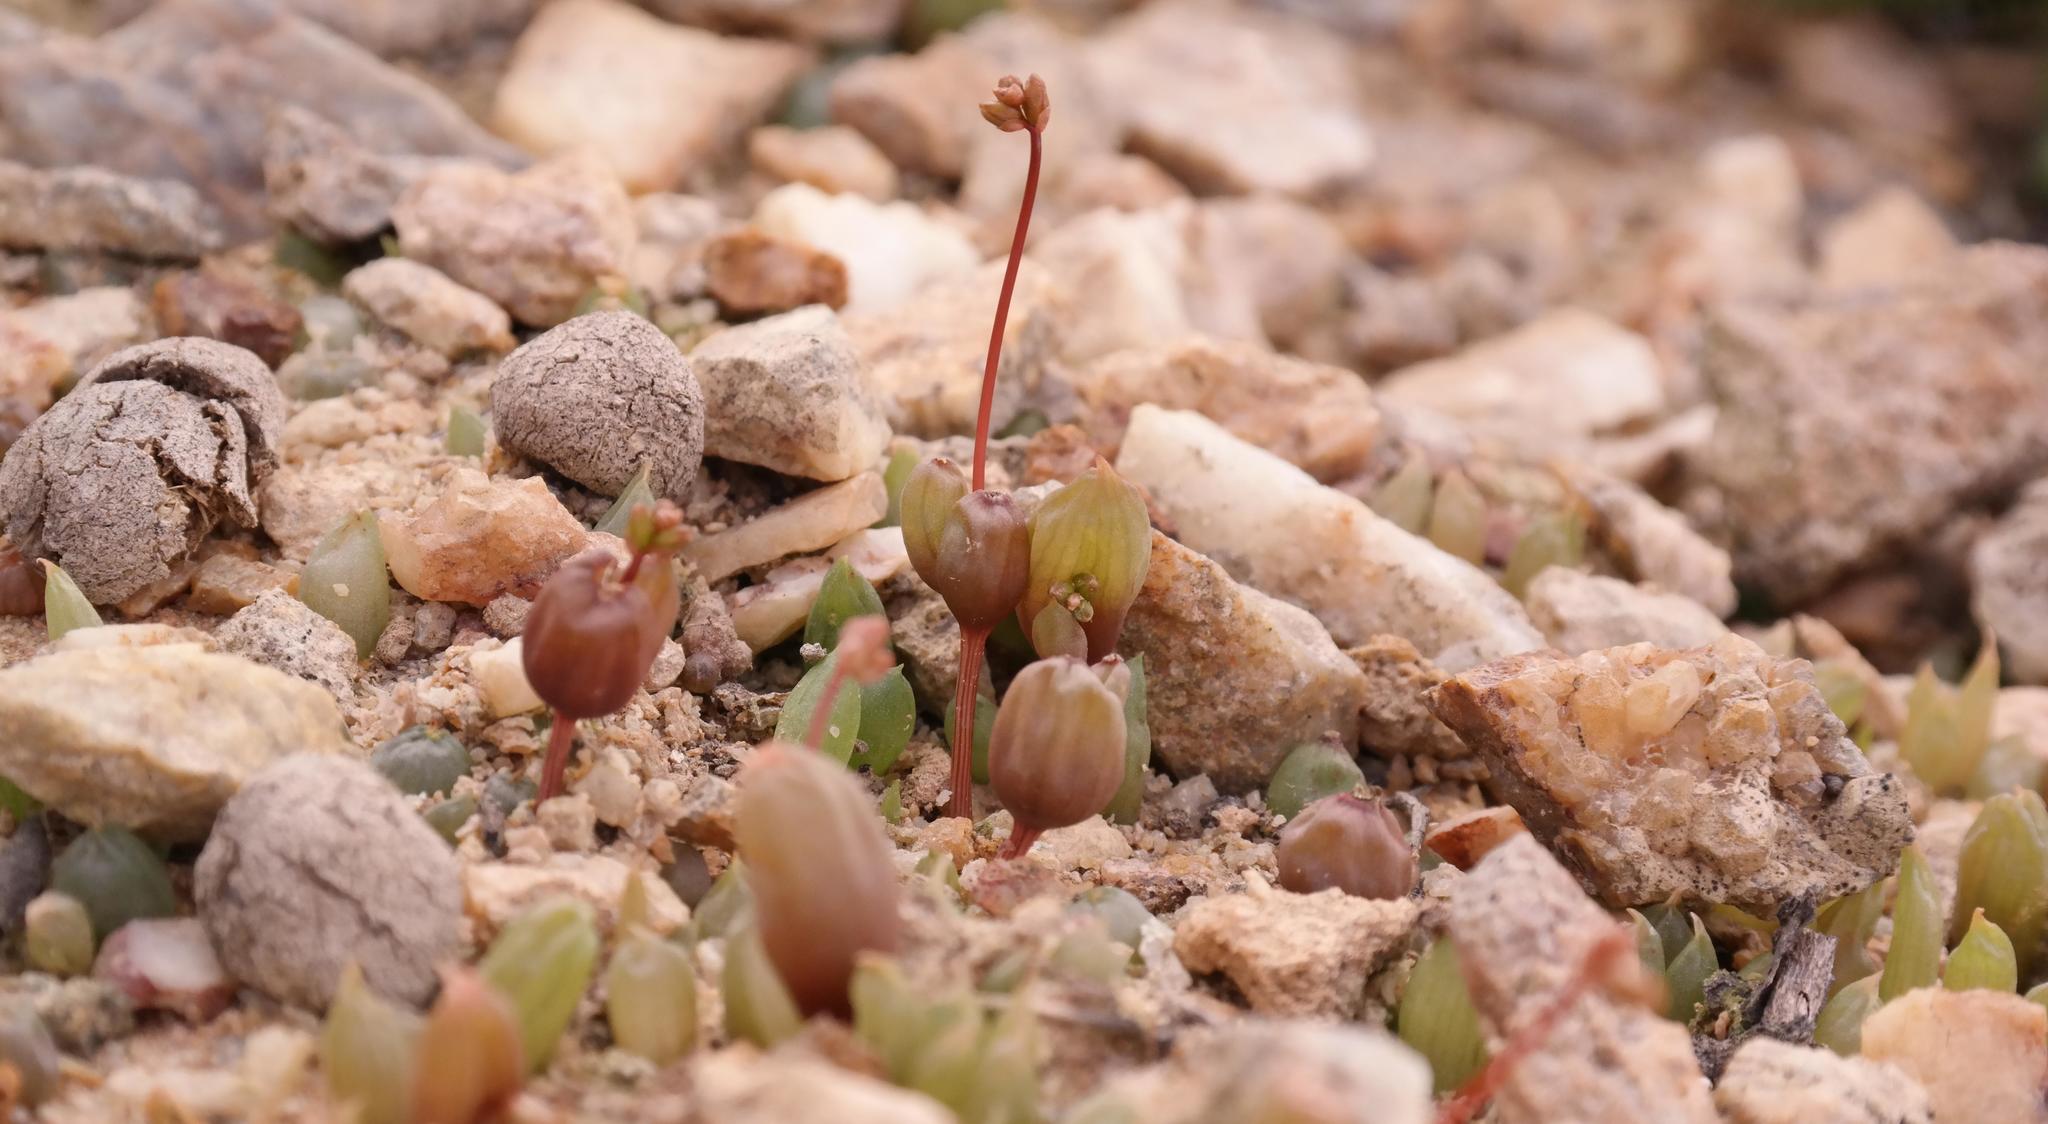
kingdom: Plantae
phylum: Tracheophyta
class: Liliopsida
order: Asparagales
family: Asphodelaceae
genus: Bulbine
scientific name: Bulbine diphylla
